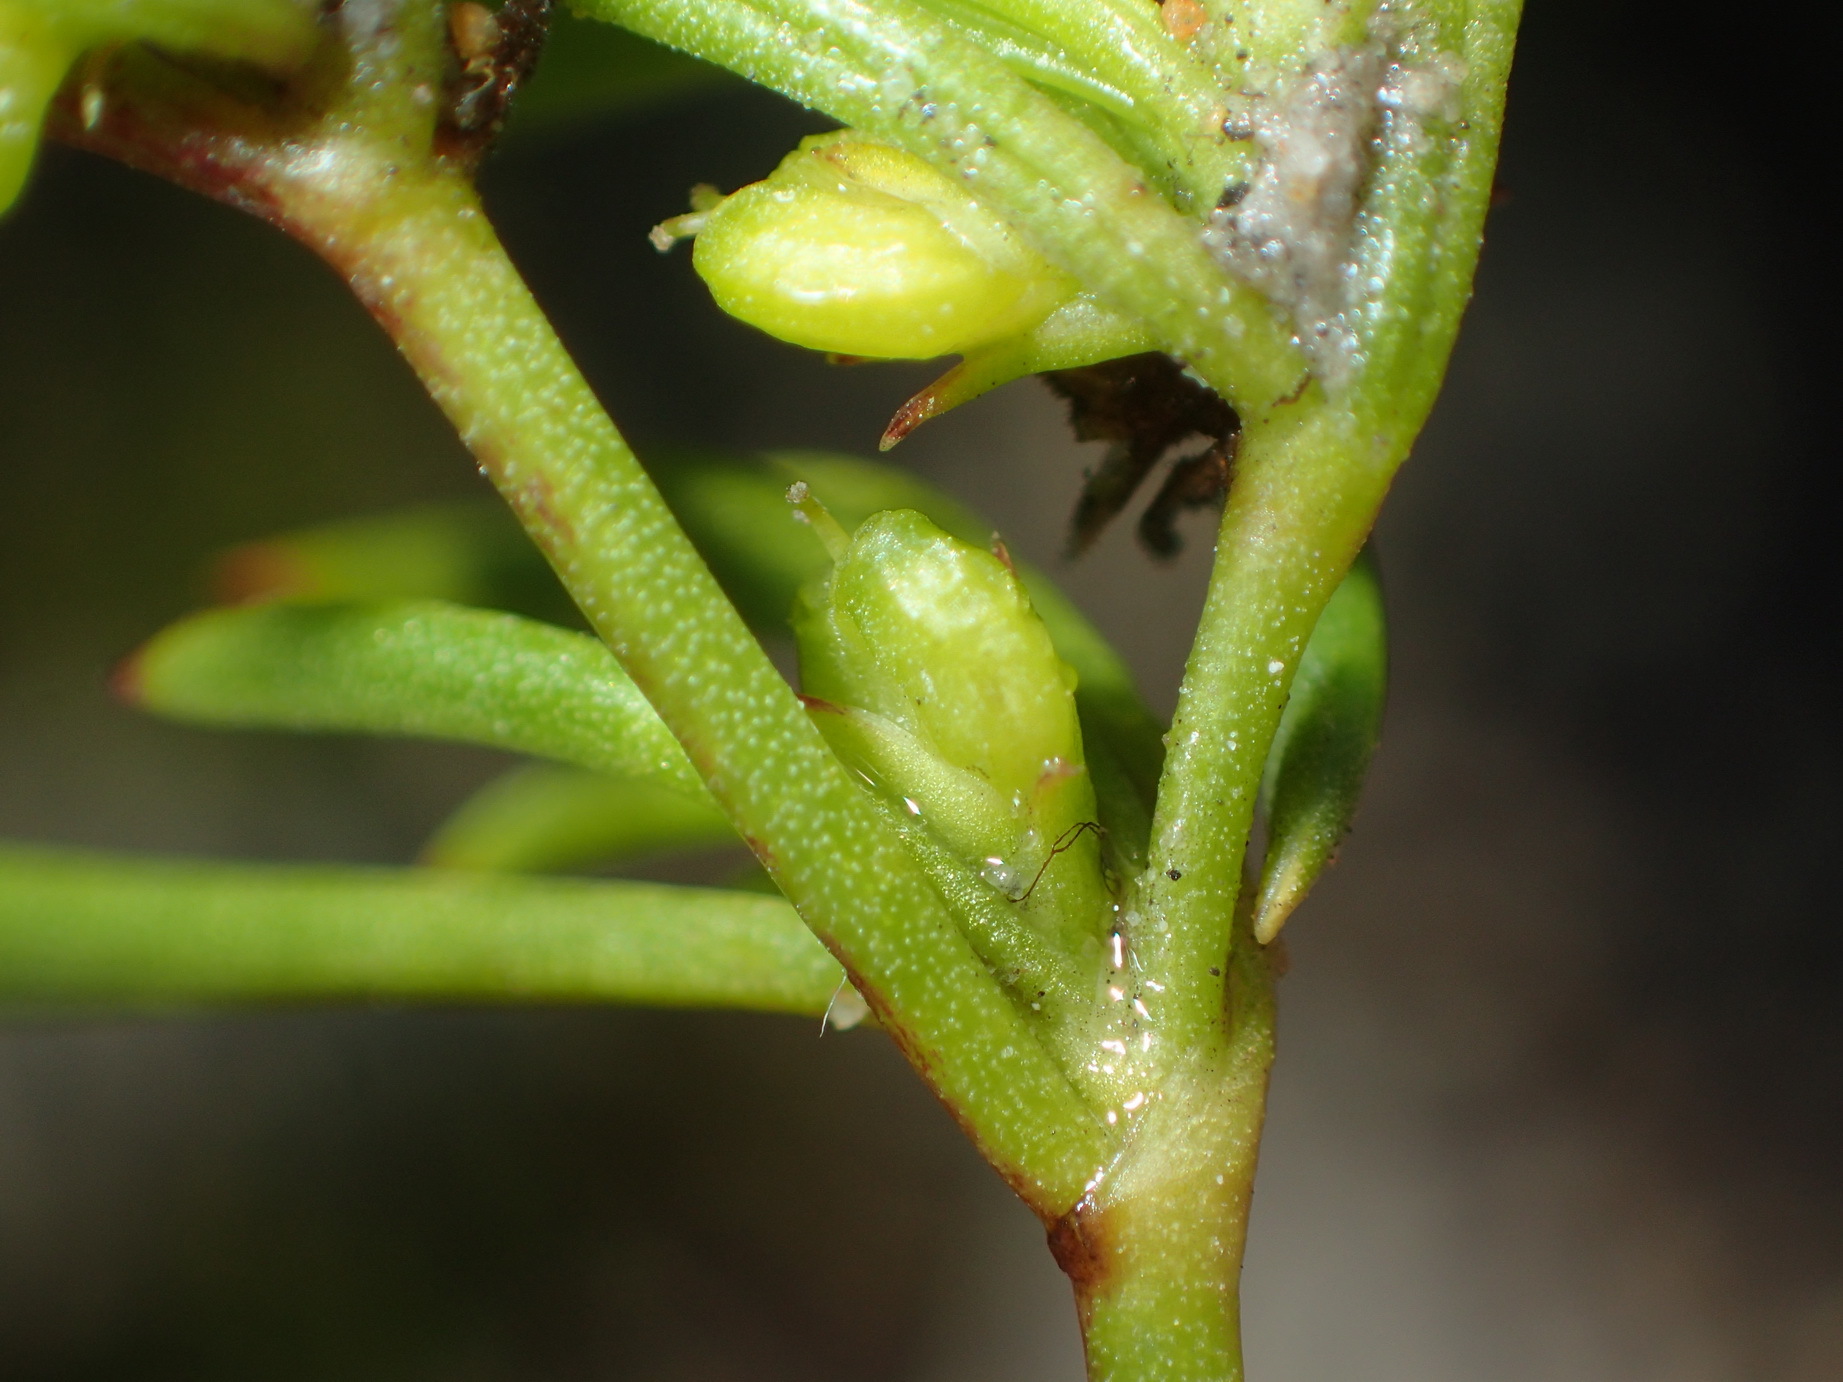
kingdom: Plantae
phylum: Tracheophyta
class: Magnoliopsida
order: Apiales
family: Apiaceae
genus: Centella
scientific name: Centella sessilis
